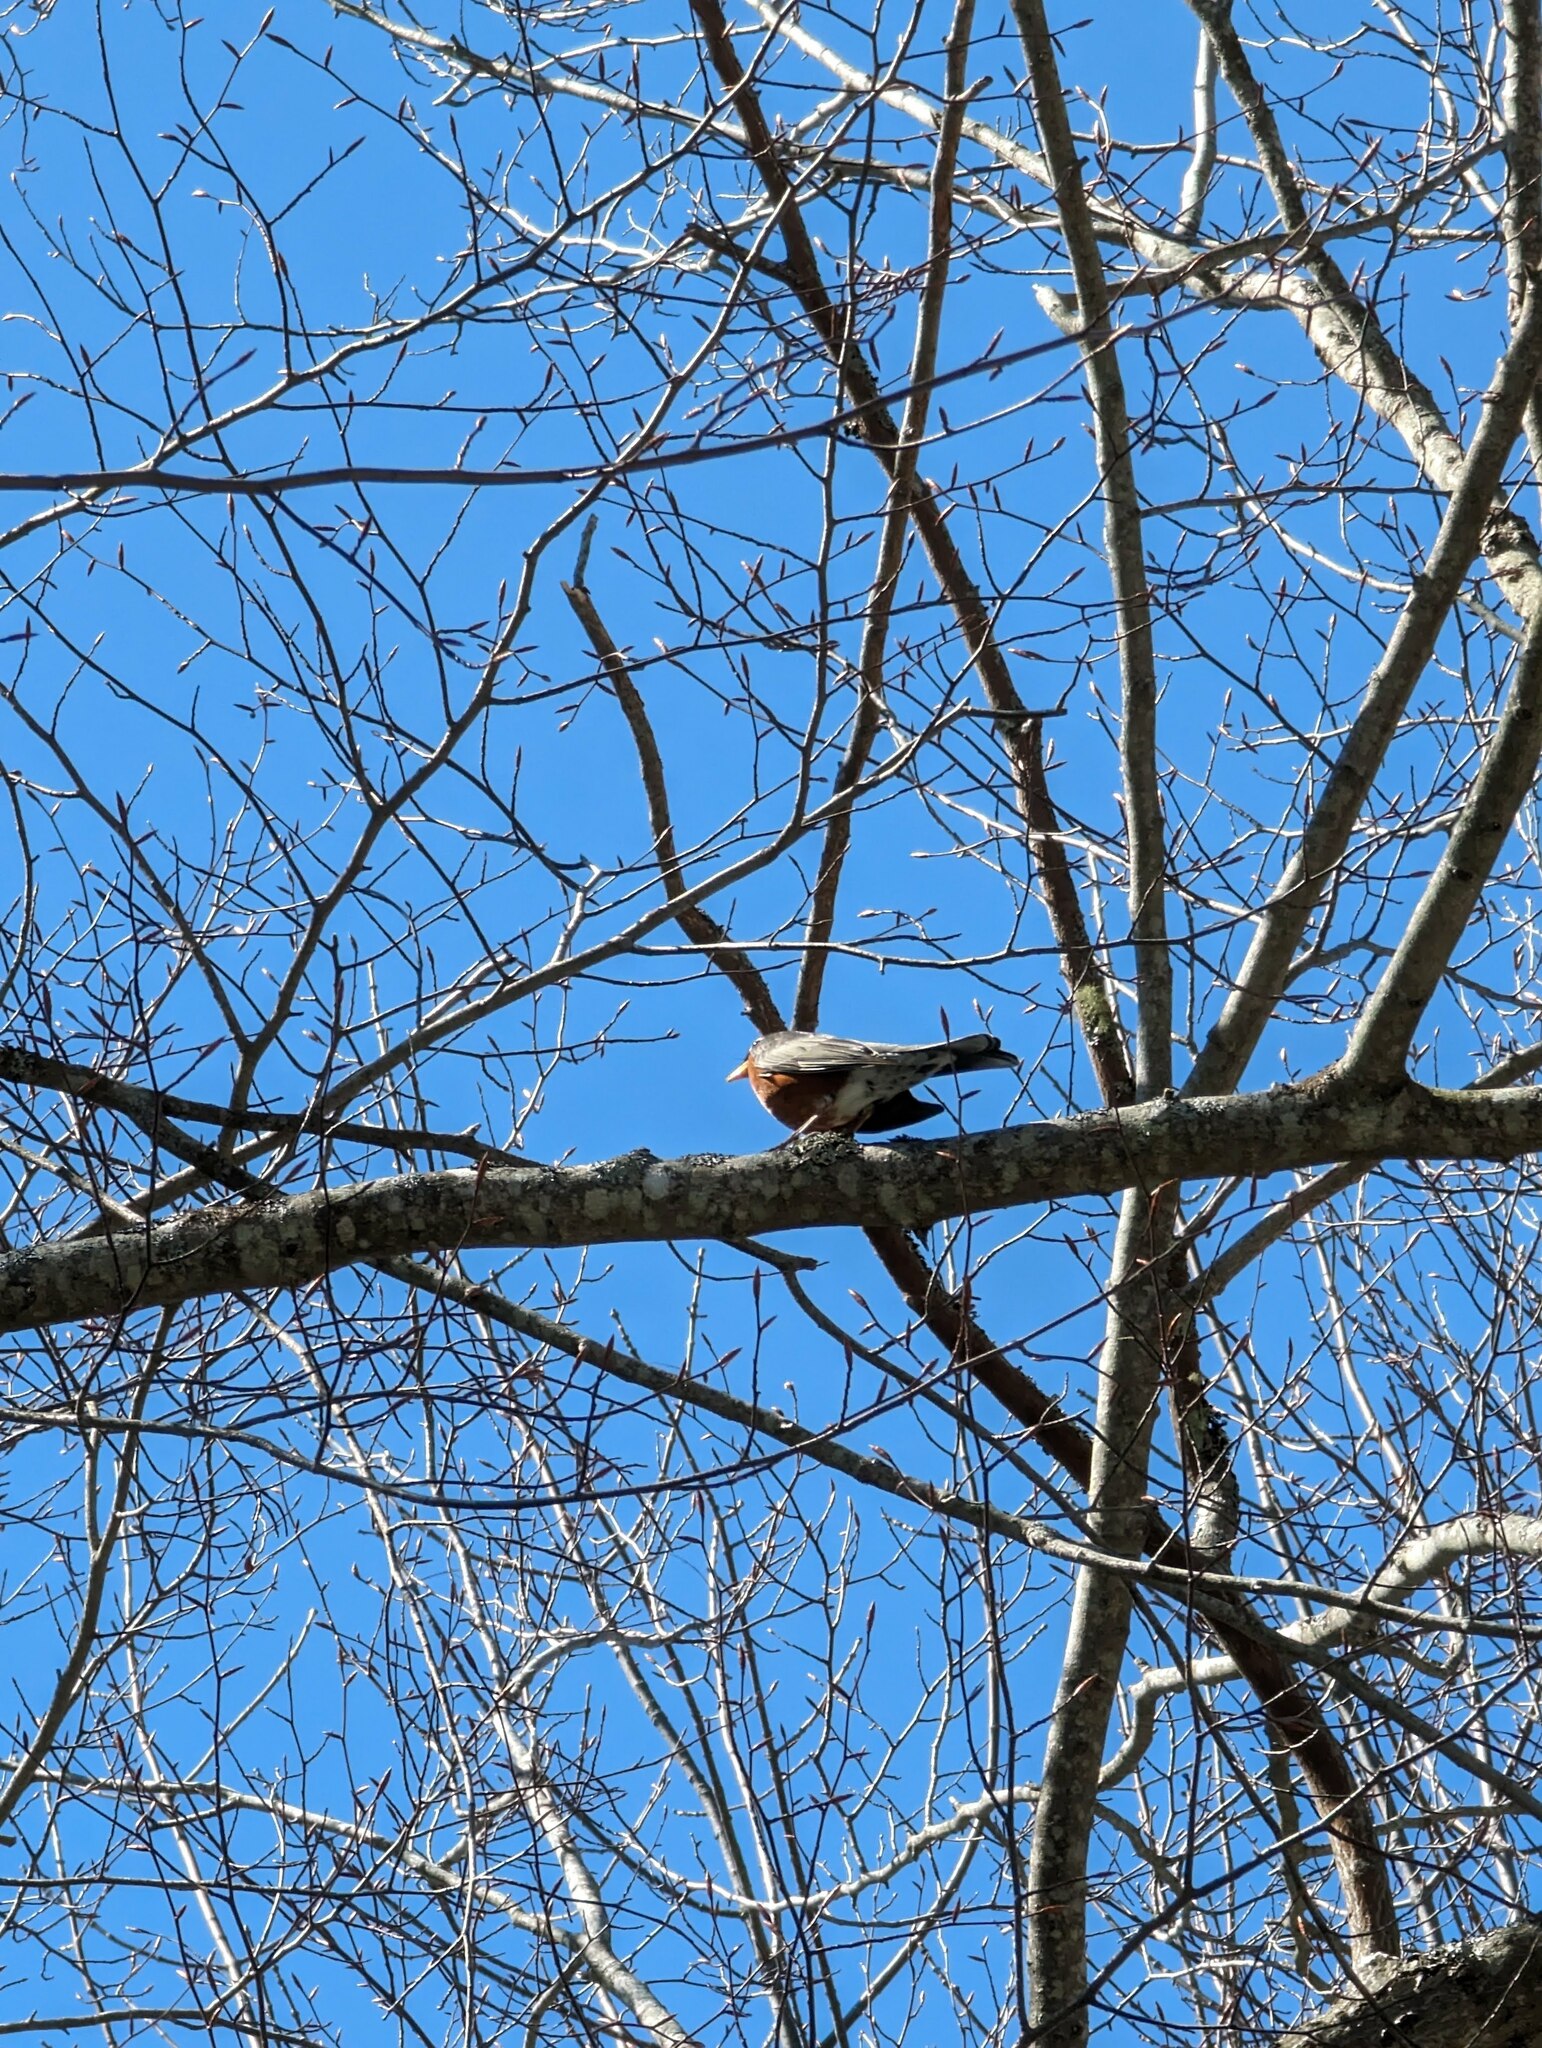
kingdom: Animalia
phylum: Chordata
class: Aves
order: Passeriformes
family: Turdidae
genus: Turdus
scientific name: Turdus migratorius
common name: American robin
